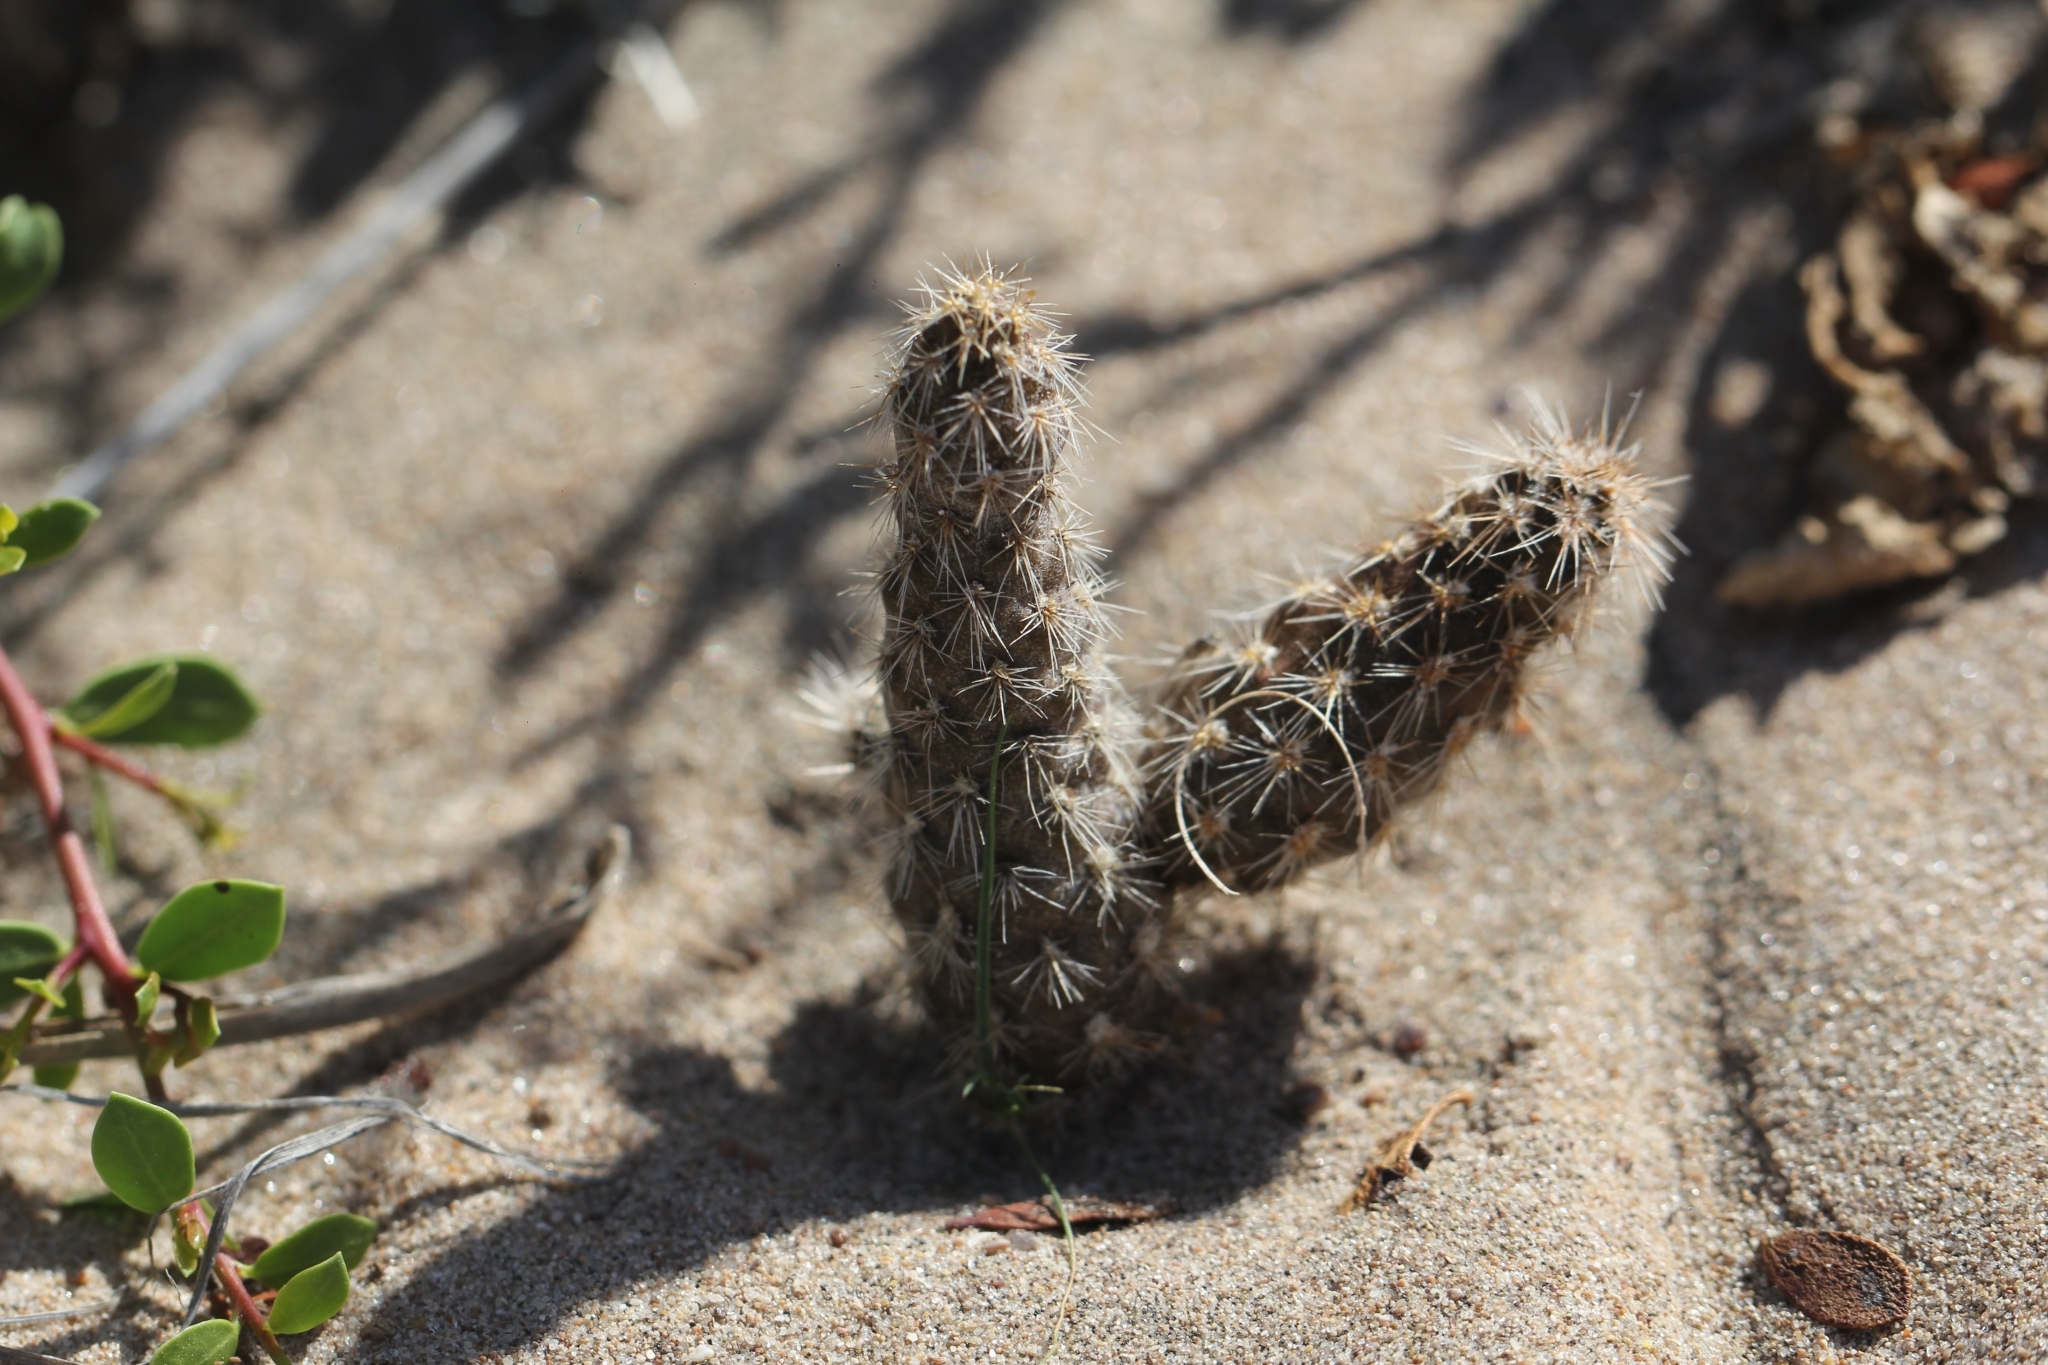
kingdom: Plantae
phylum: Tracheophyta
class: Magnoliopsida
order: Caryophyllales
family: Cactaceae
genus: Pterocactus
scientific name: Pterocactus valentini
